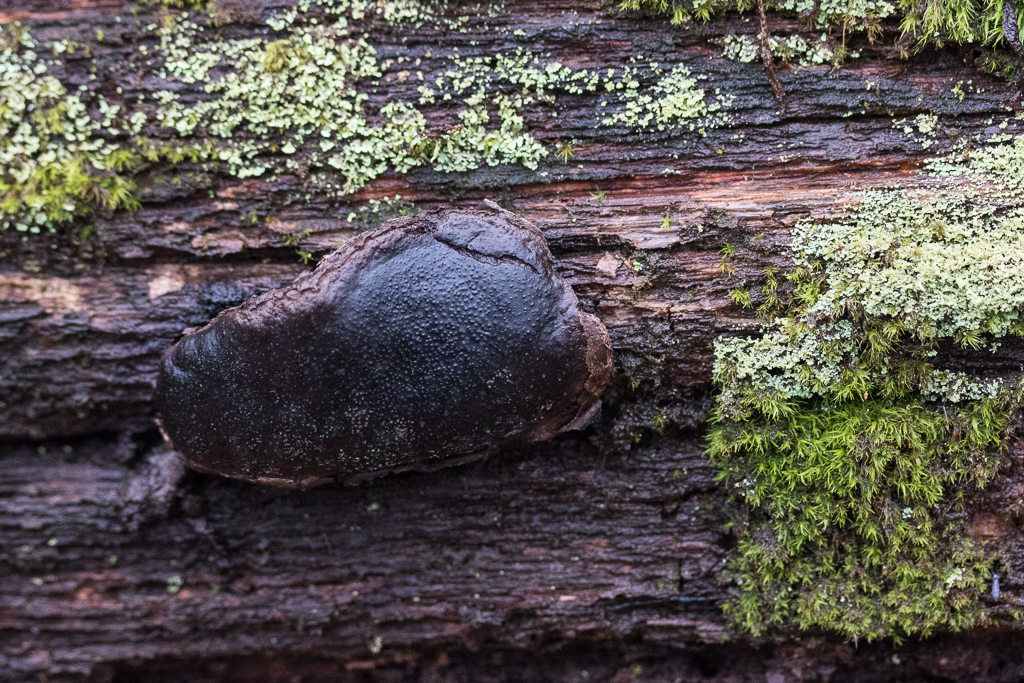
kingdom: Fungi
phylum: Ascomycota
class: Sordariomycetes
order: Boliniales
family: Boliniaceae
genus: Camarops
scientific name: Camarops petersii
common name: Dog's nose fungus
